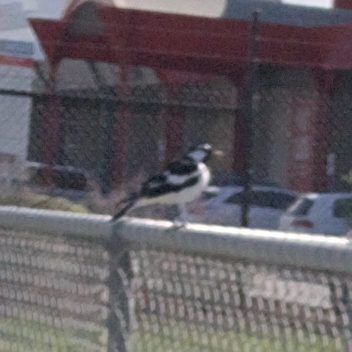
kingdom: Animalia
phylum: Chordata
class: Aves
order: Passeriformes
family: Monarchidae
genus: Grallina
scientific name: Grallina cyanoleuca
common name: Magpie-lark
